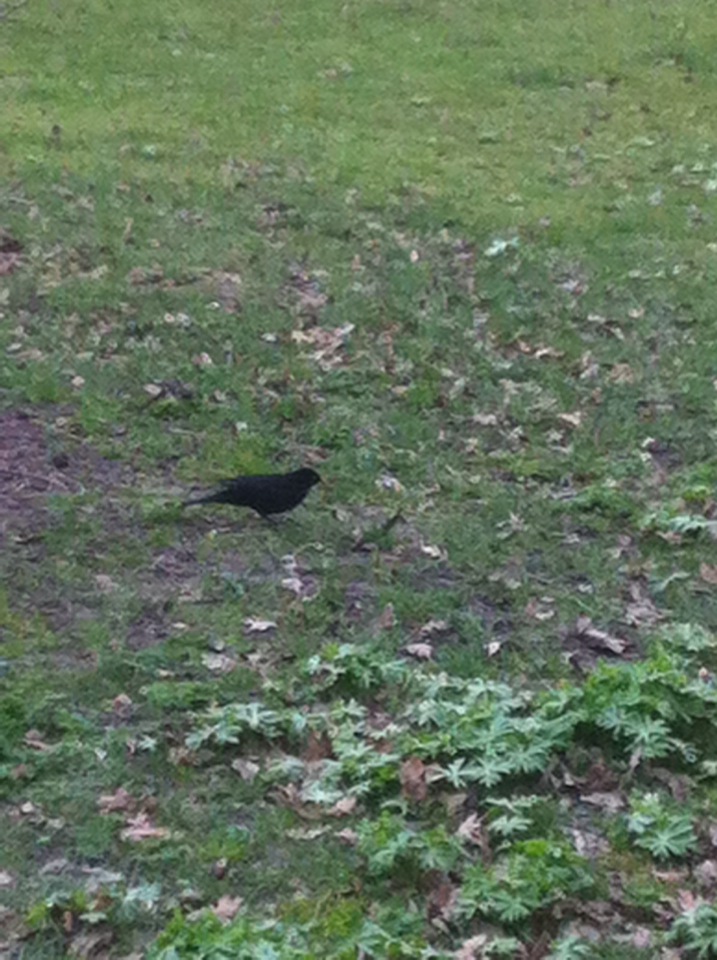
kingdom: Animalia
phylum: Chordata
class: Aves
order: Passeriformes
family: Turdidae
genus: Turdus
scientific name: Turdus merula
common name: Common blackbird
